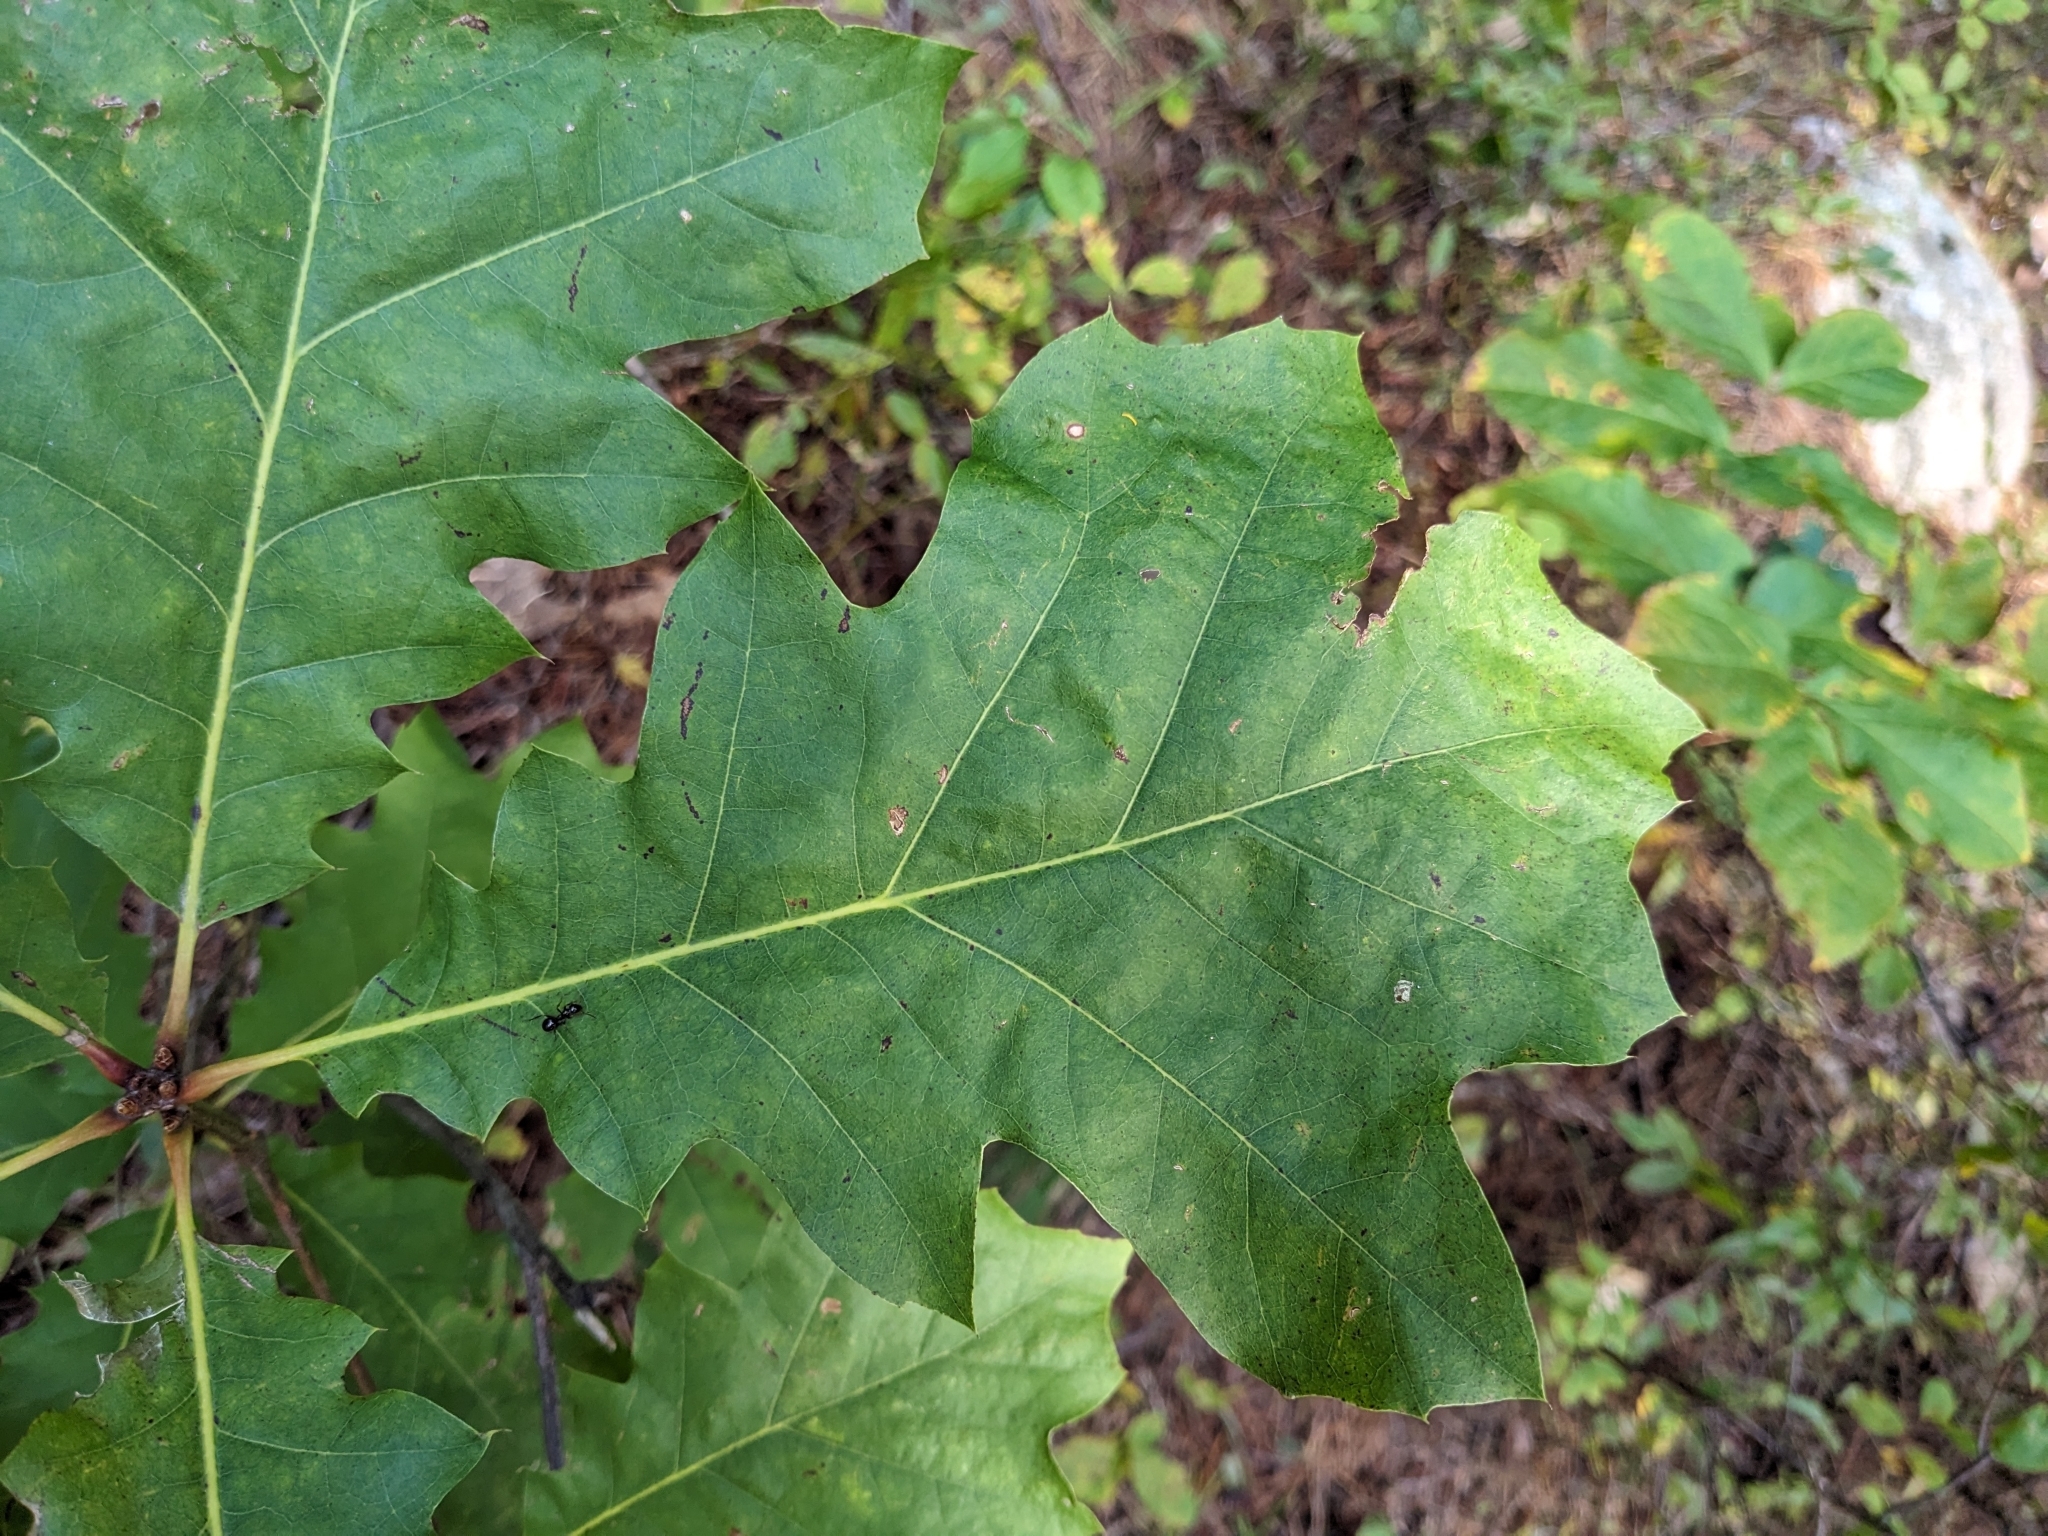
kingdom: Plantae
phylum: Tracheophyta
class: Magnoliopsida
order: Fagales
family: Fagaceae
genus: Quercus
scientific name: Quercus rubra
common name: Red oak
